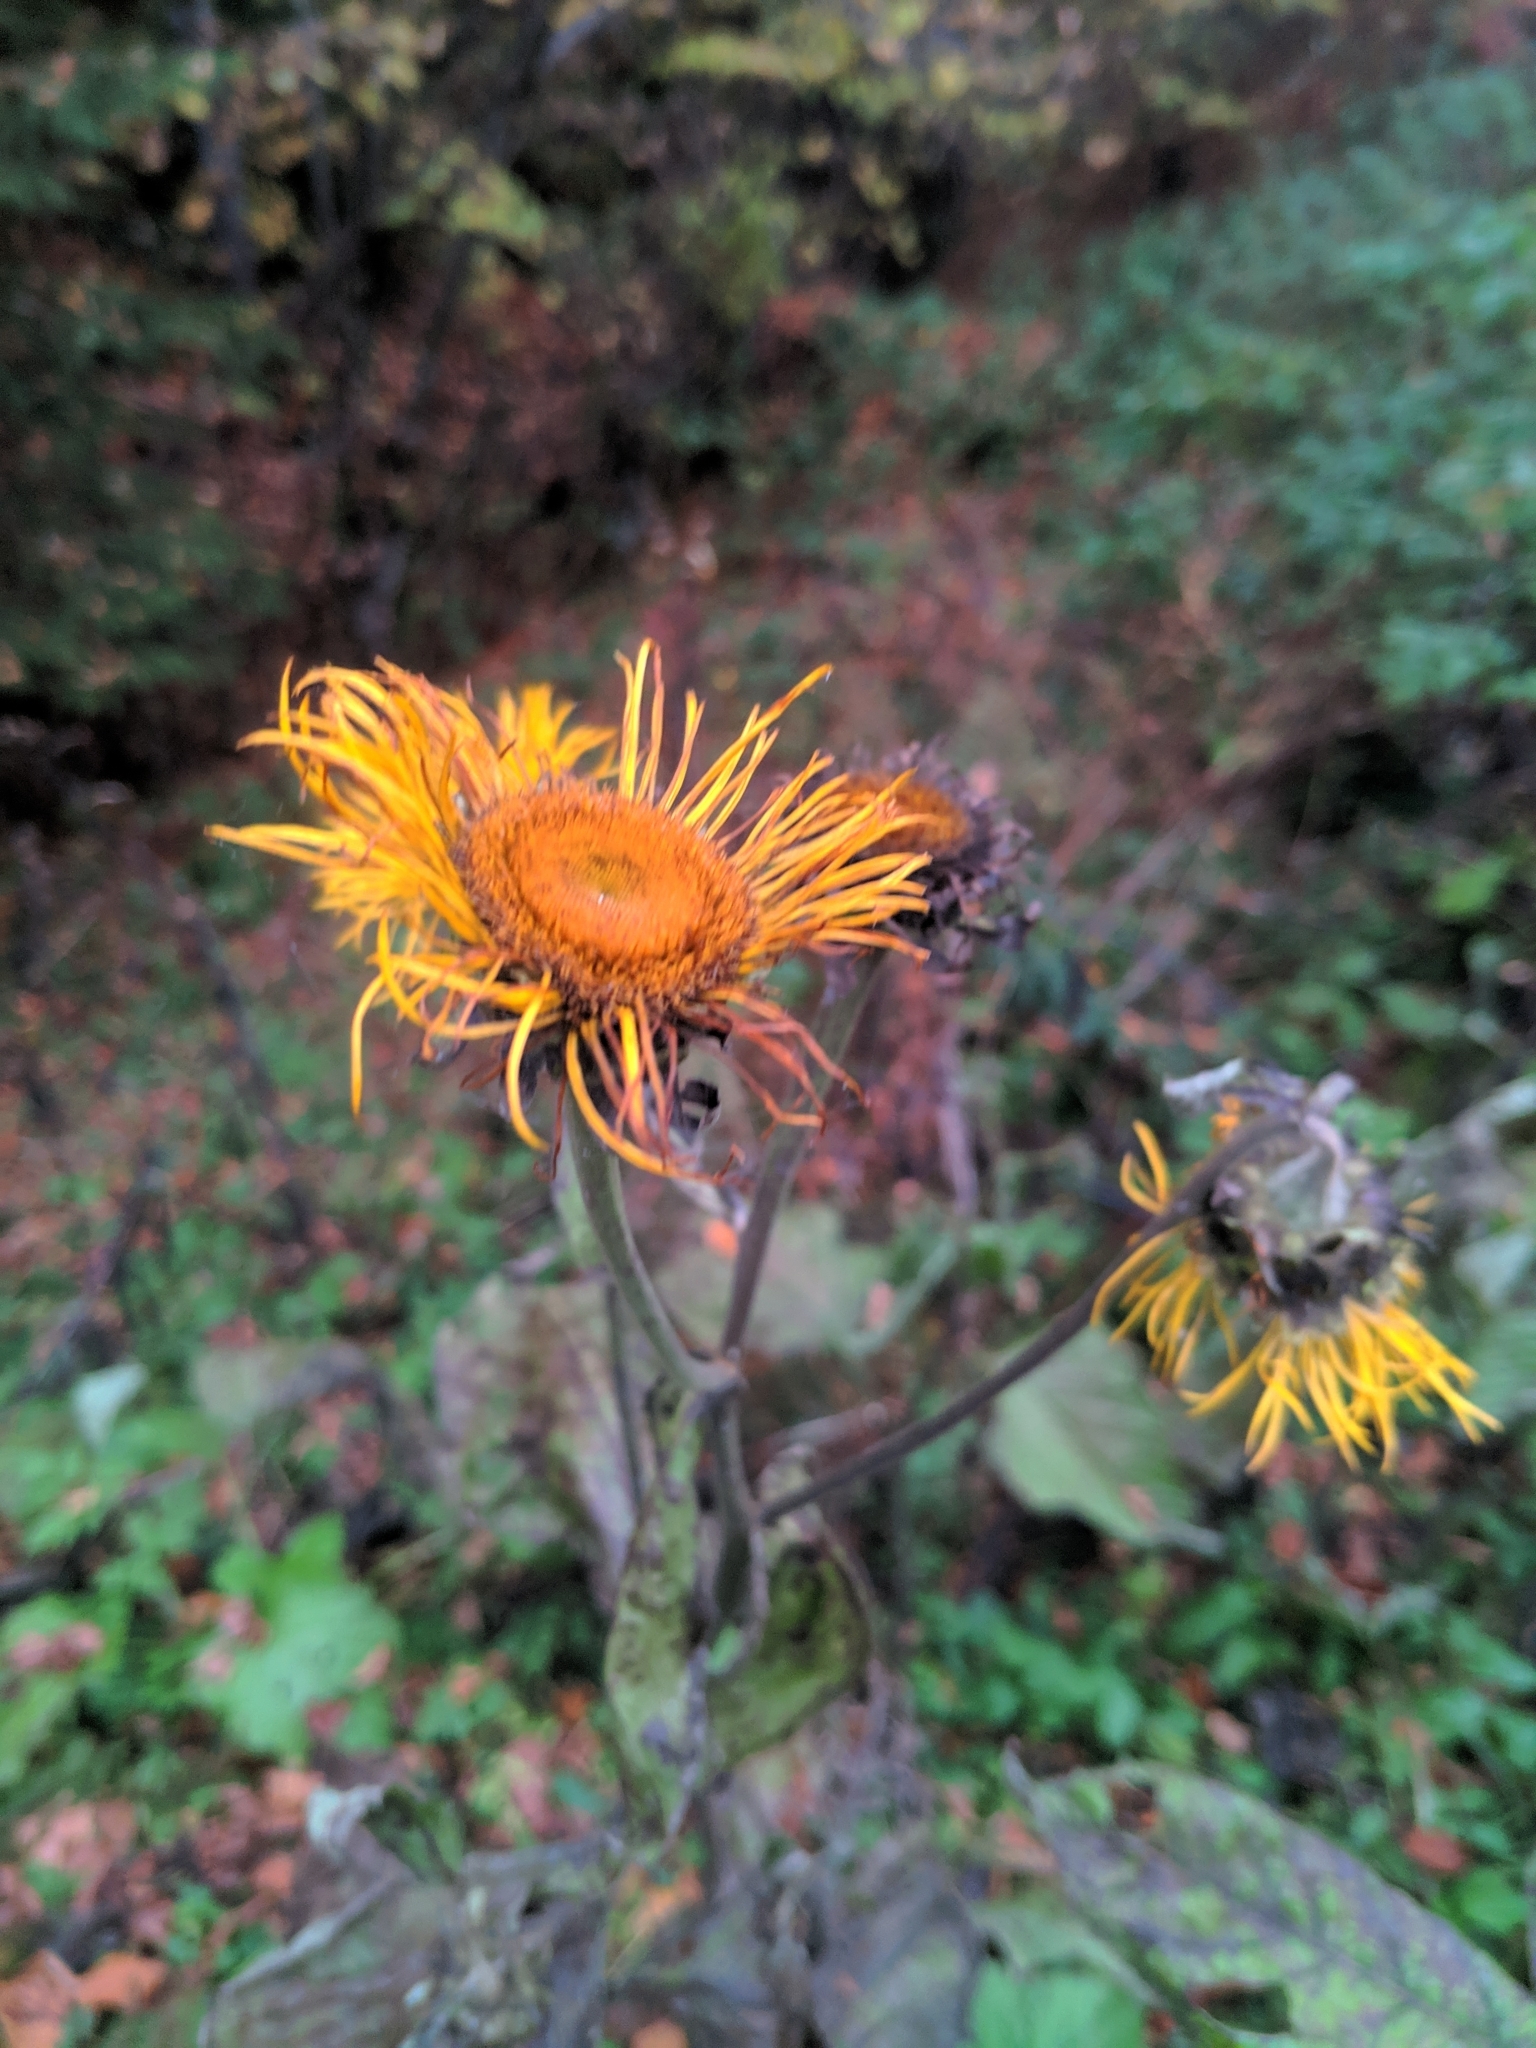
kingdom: Plantae
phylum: Tracheophyta
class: Magnoliopsida
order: Asterales
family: Asteraceae
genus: Telekia
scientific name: Telekia speciosa
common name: Yellow oxeye
